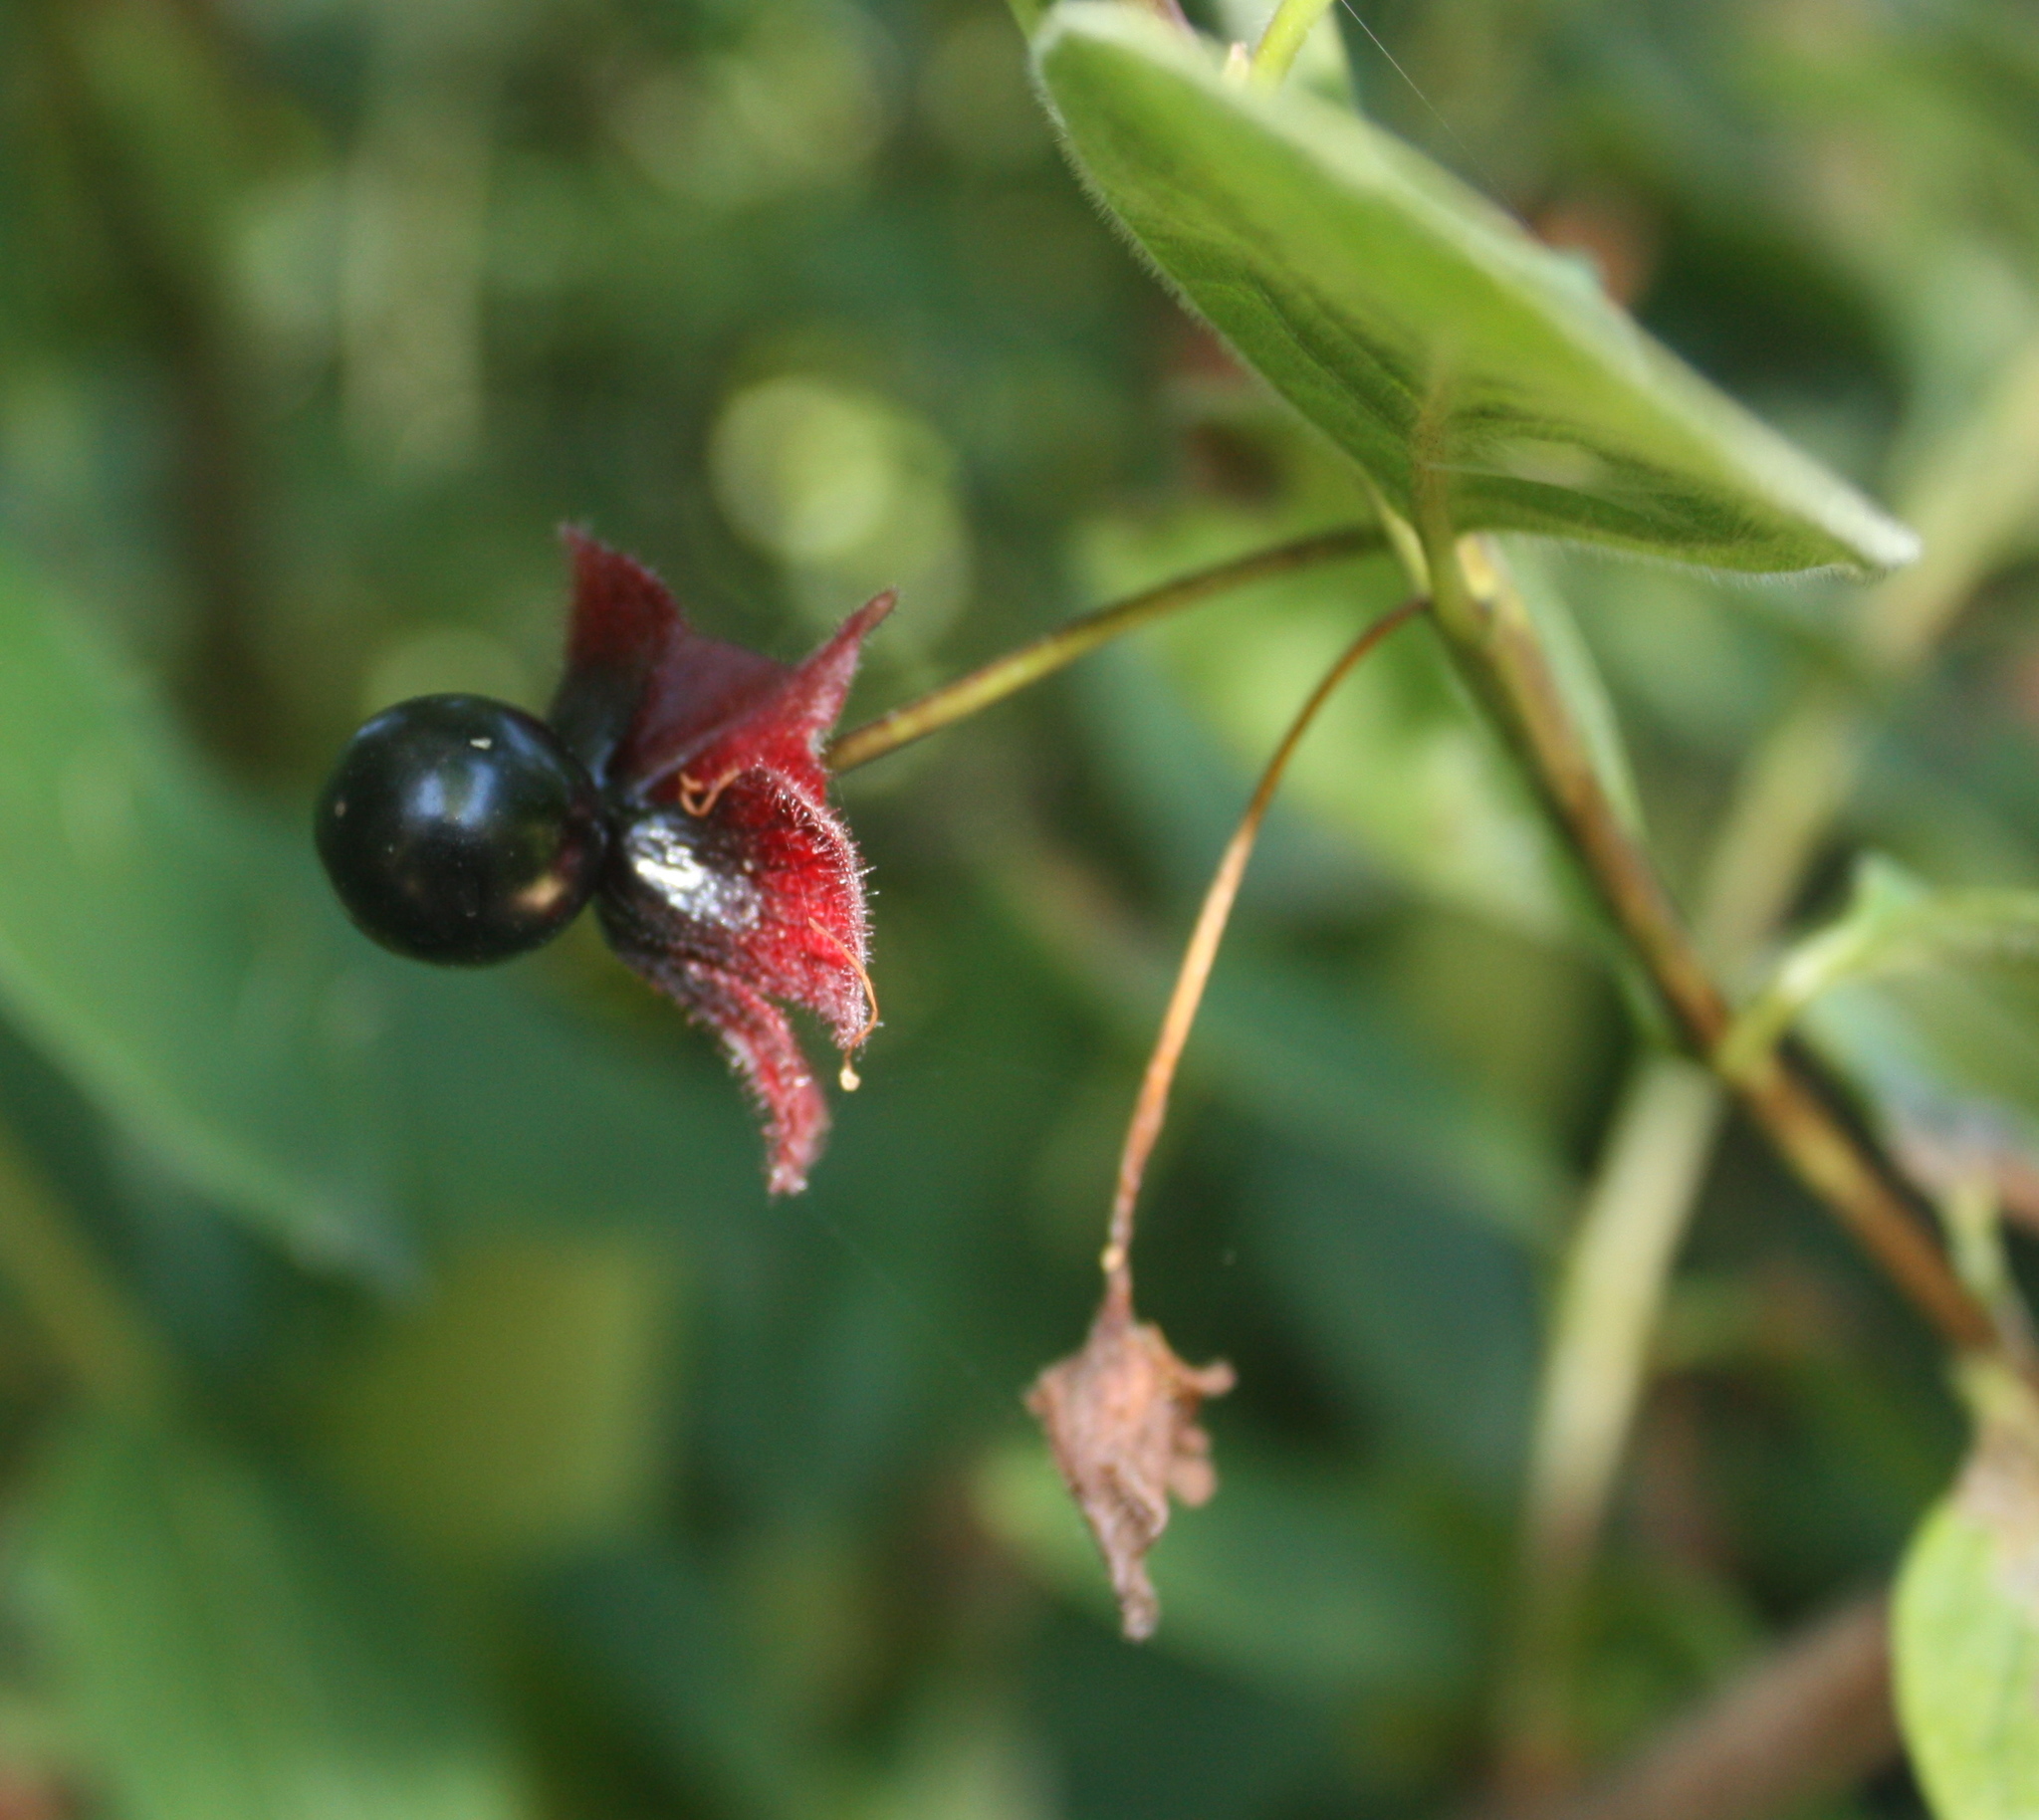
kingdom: Plantae
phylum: Tracheophyta
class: Magnoliopsida
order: Dipsacales
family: Caprifoliaceae
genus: Lonicera
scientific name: Lonicera involucrata
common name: Californian honeysuckle
